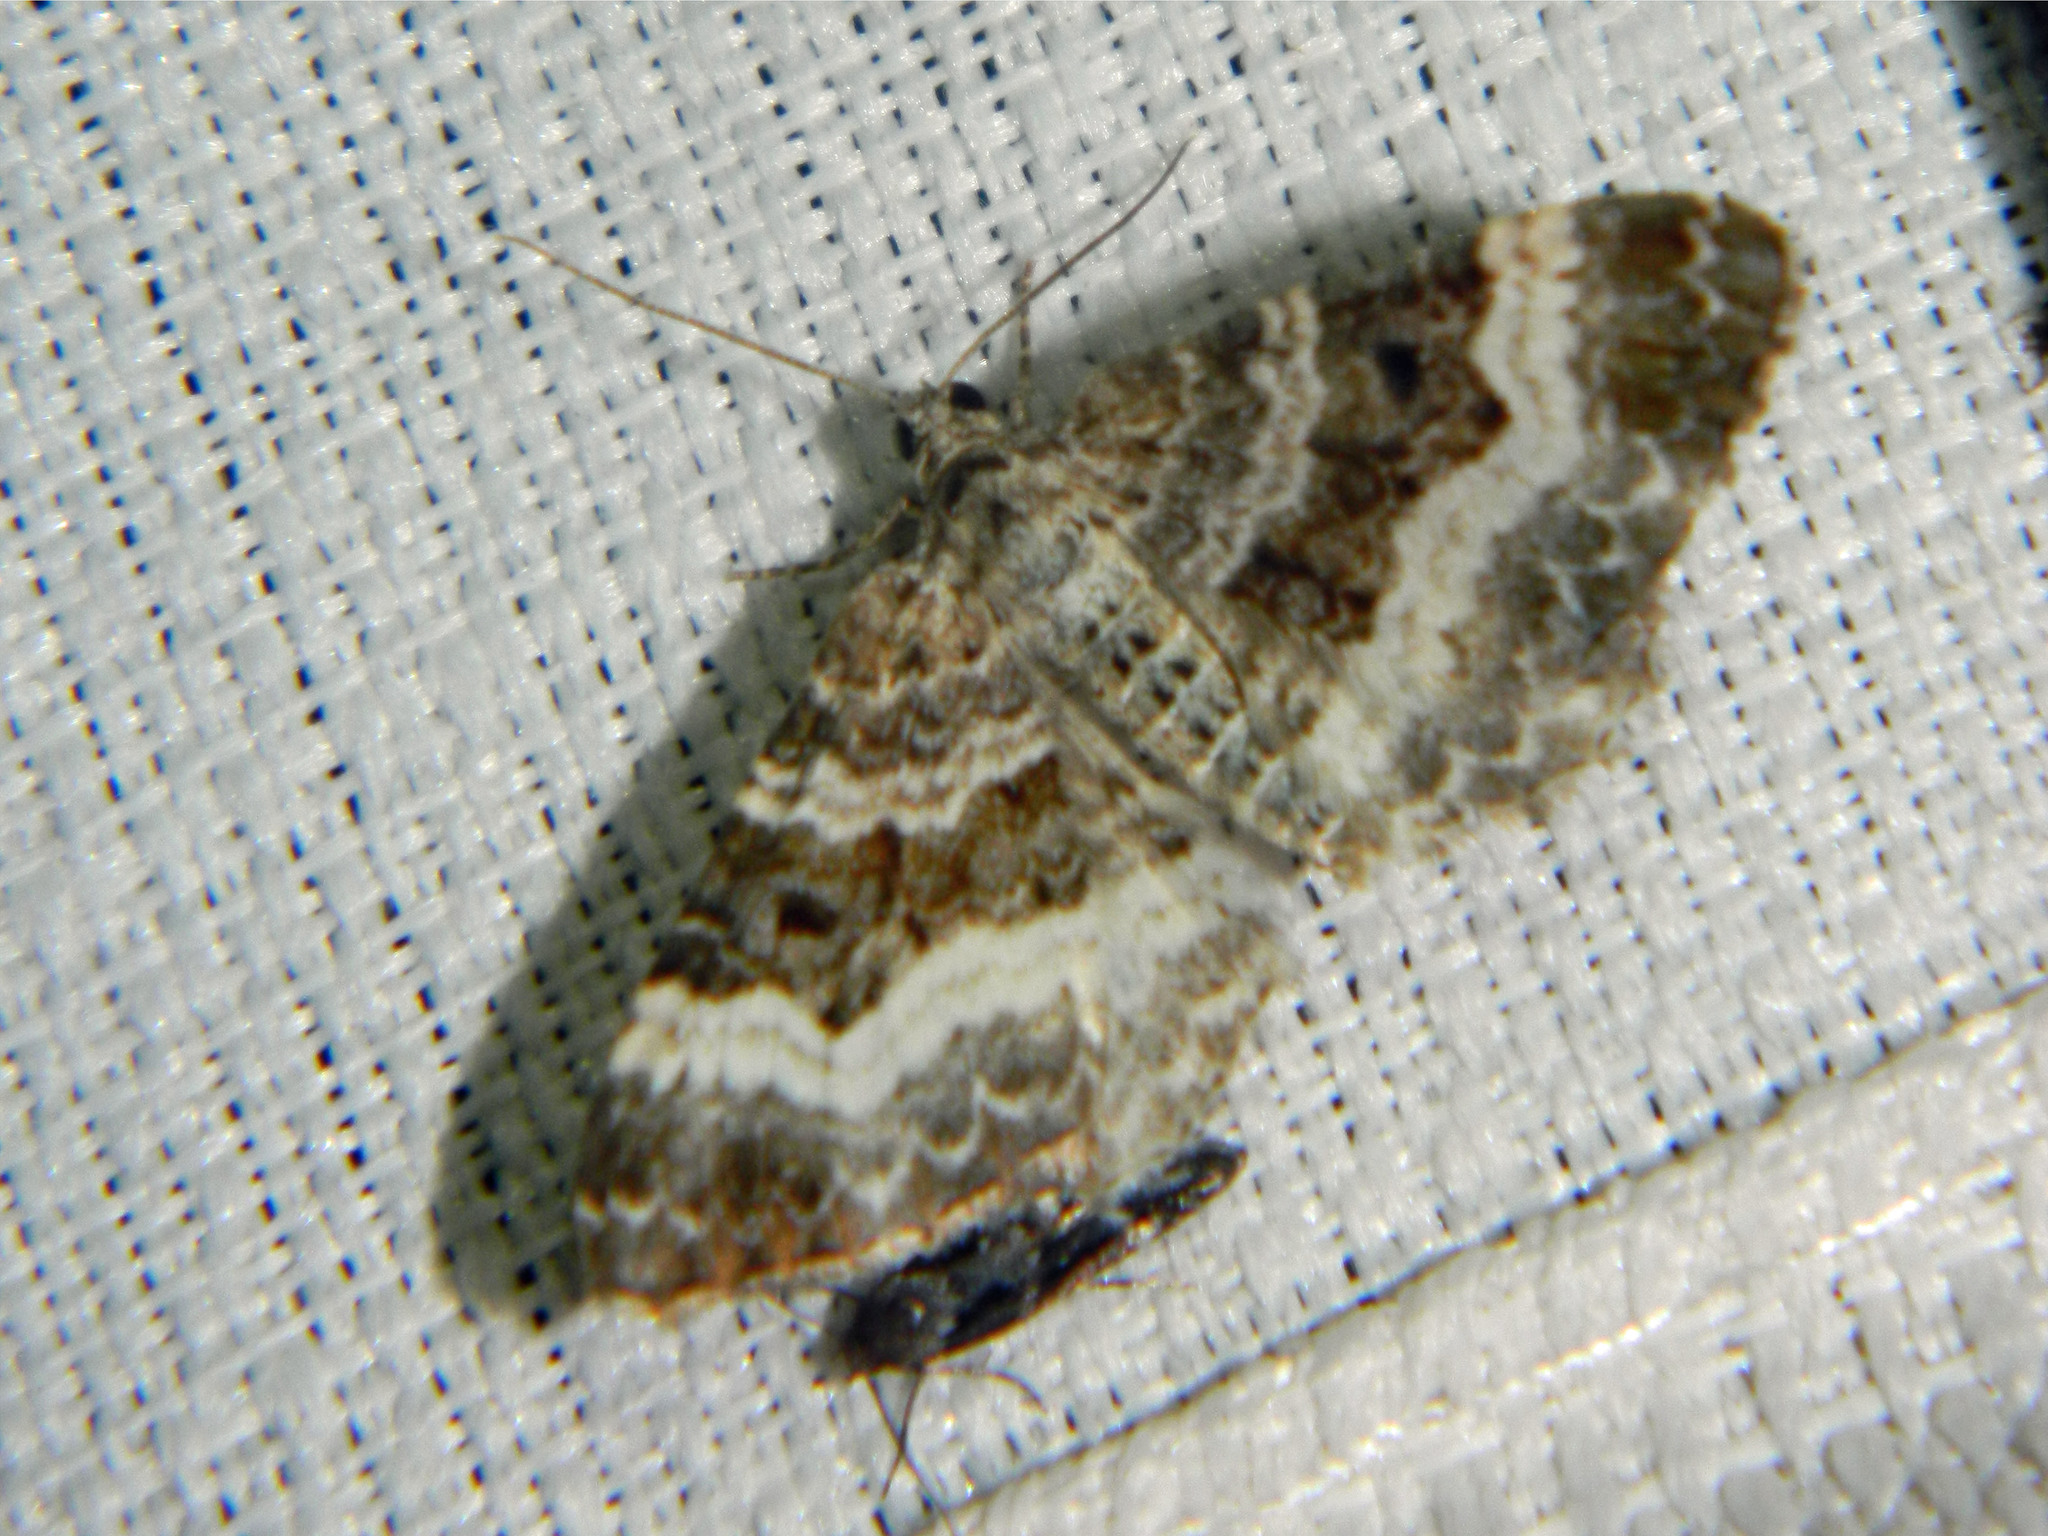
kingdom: Animalia
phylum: Arthropoda
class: Insecta
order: Lepidoptera
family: Geometridae
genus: Epirrhoe
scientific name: Epirrhoe alternata
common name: Common carpet
